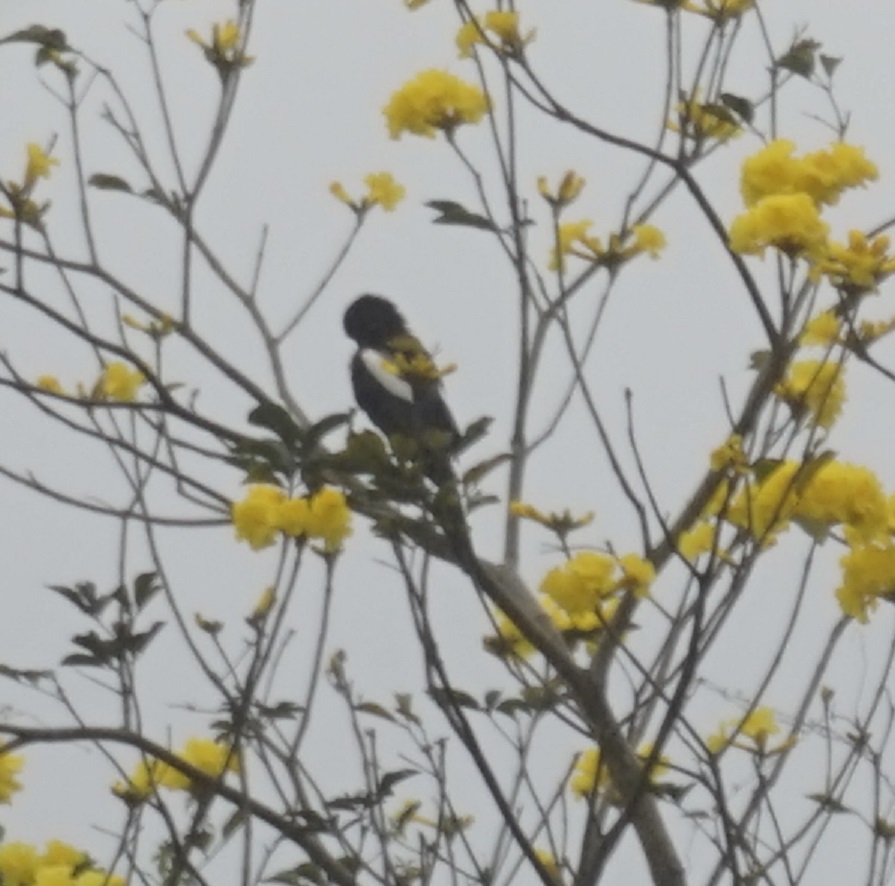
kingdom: Animalia
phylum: Chordata
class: Aves
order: Passeriformes
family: Corvidae
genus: Pica
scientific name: Pica serica
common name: Oriental magpie
